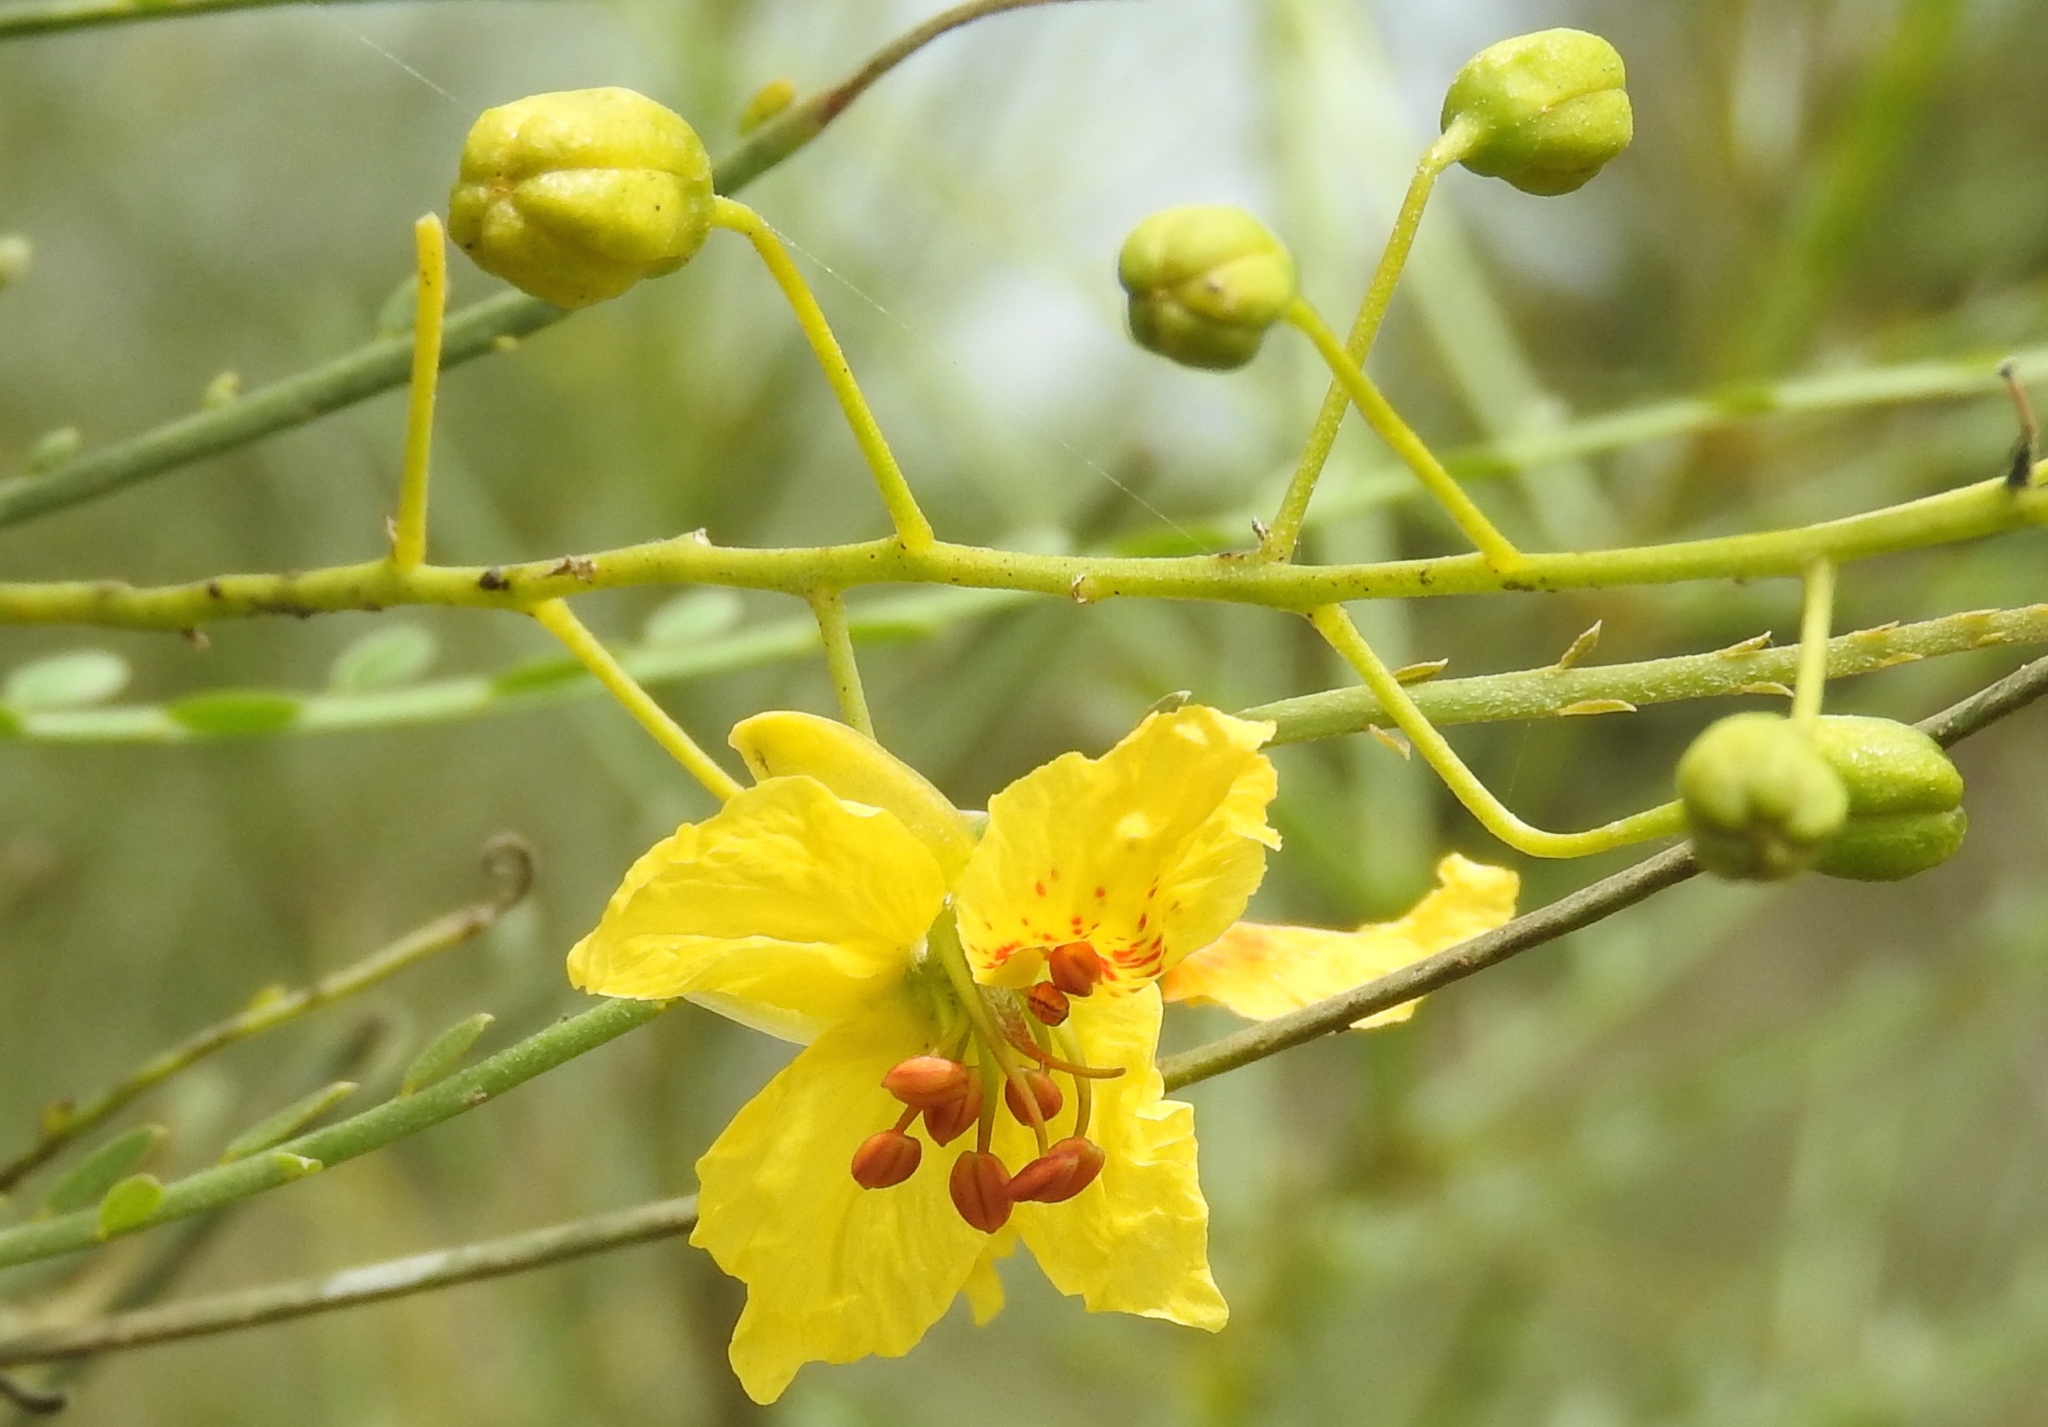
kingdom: Plantae
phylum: Tracheophyta
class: Magnoliopsida
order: Fabales
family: Fabaceae
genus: Parkinsonia
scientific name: Parkinsonia aculeata
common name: Jerusalem thorn
